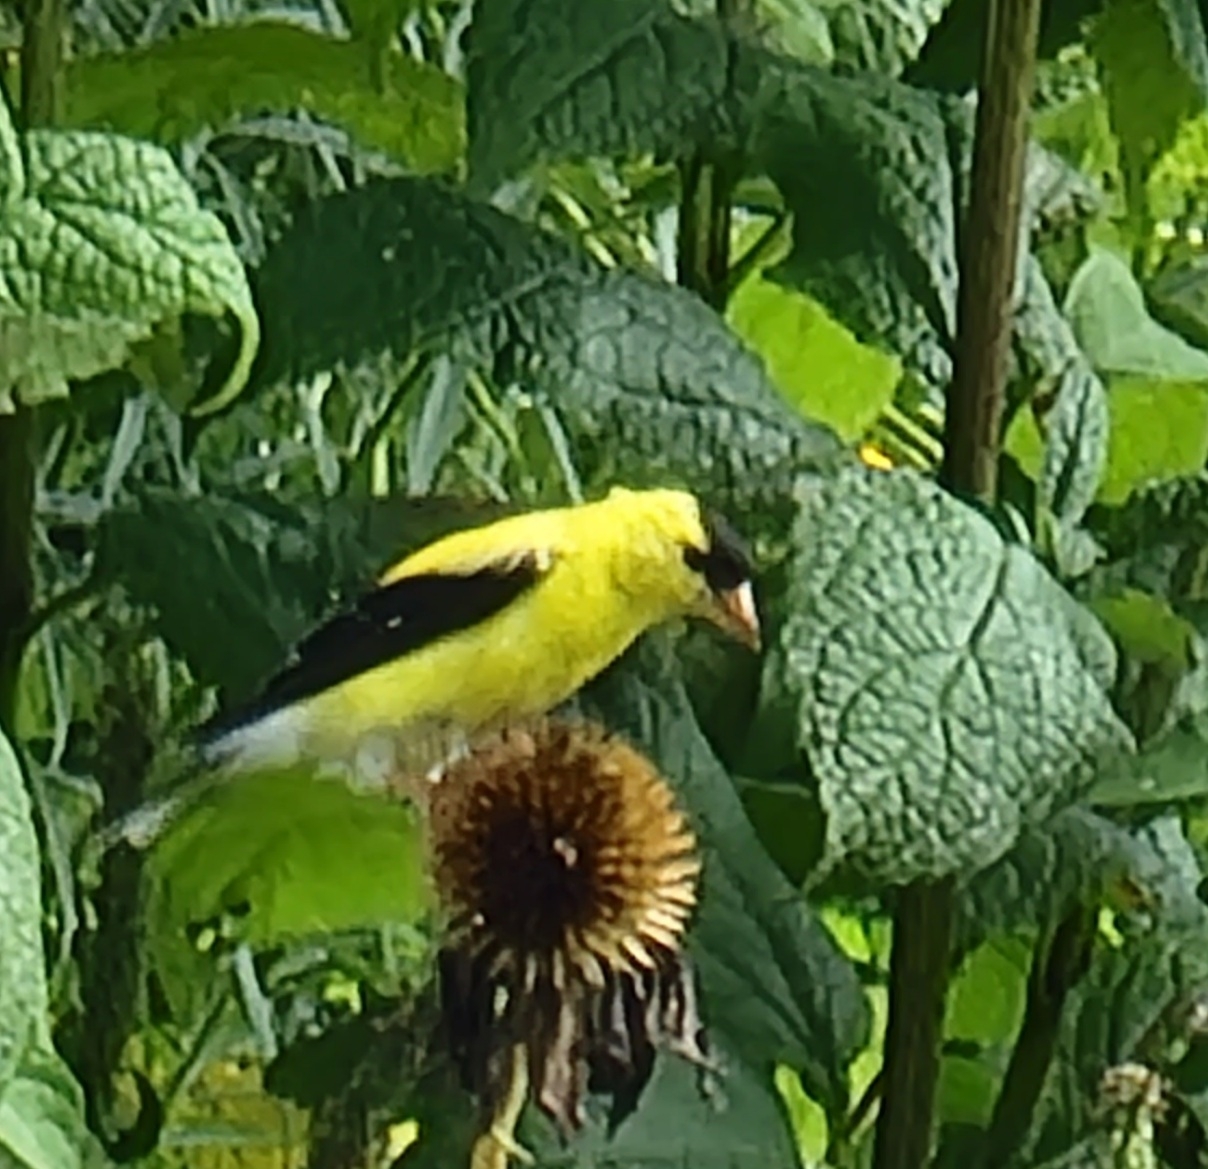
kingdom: Animalia
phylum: Chordata
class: Aves
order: Passeriformes
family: Fringillidae
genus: Spinus
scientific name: Spinus tristis
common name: American goldfinch
